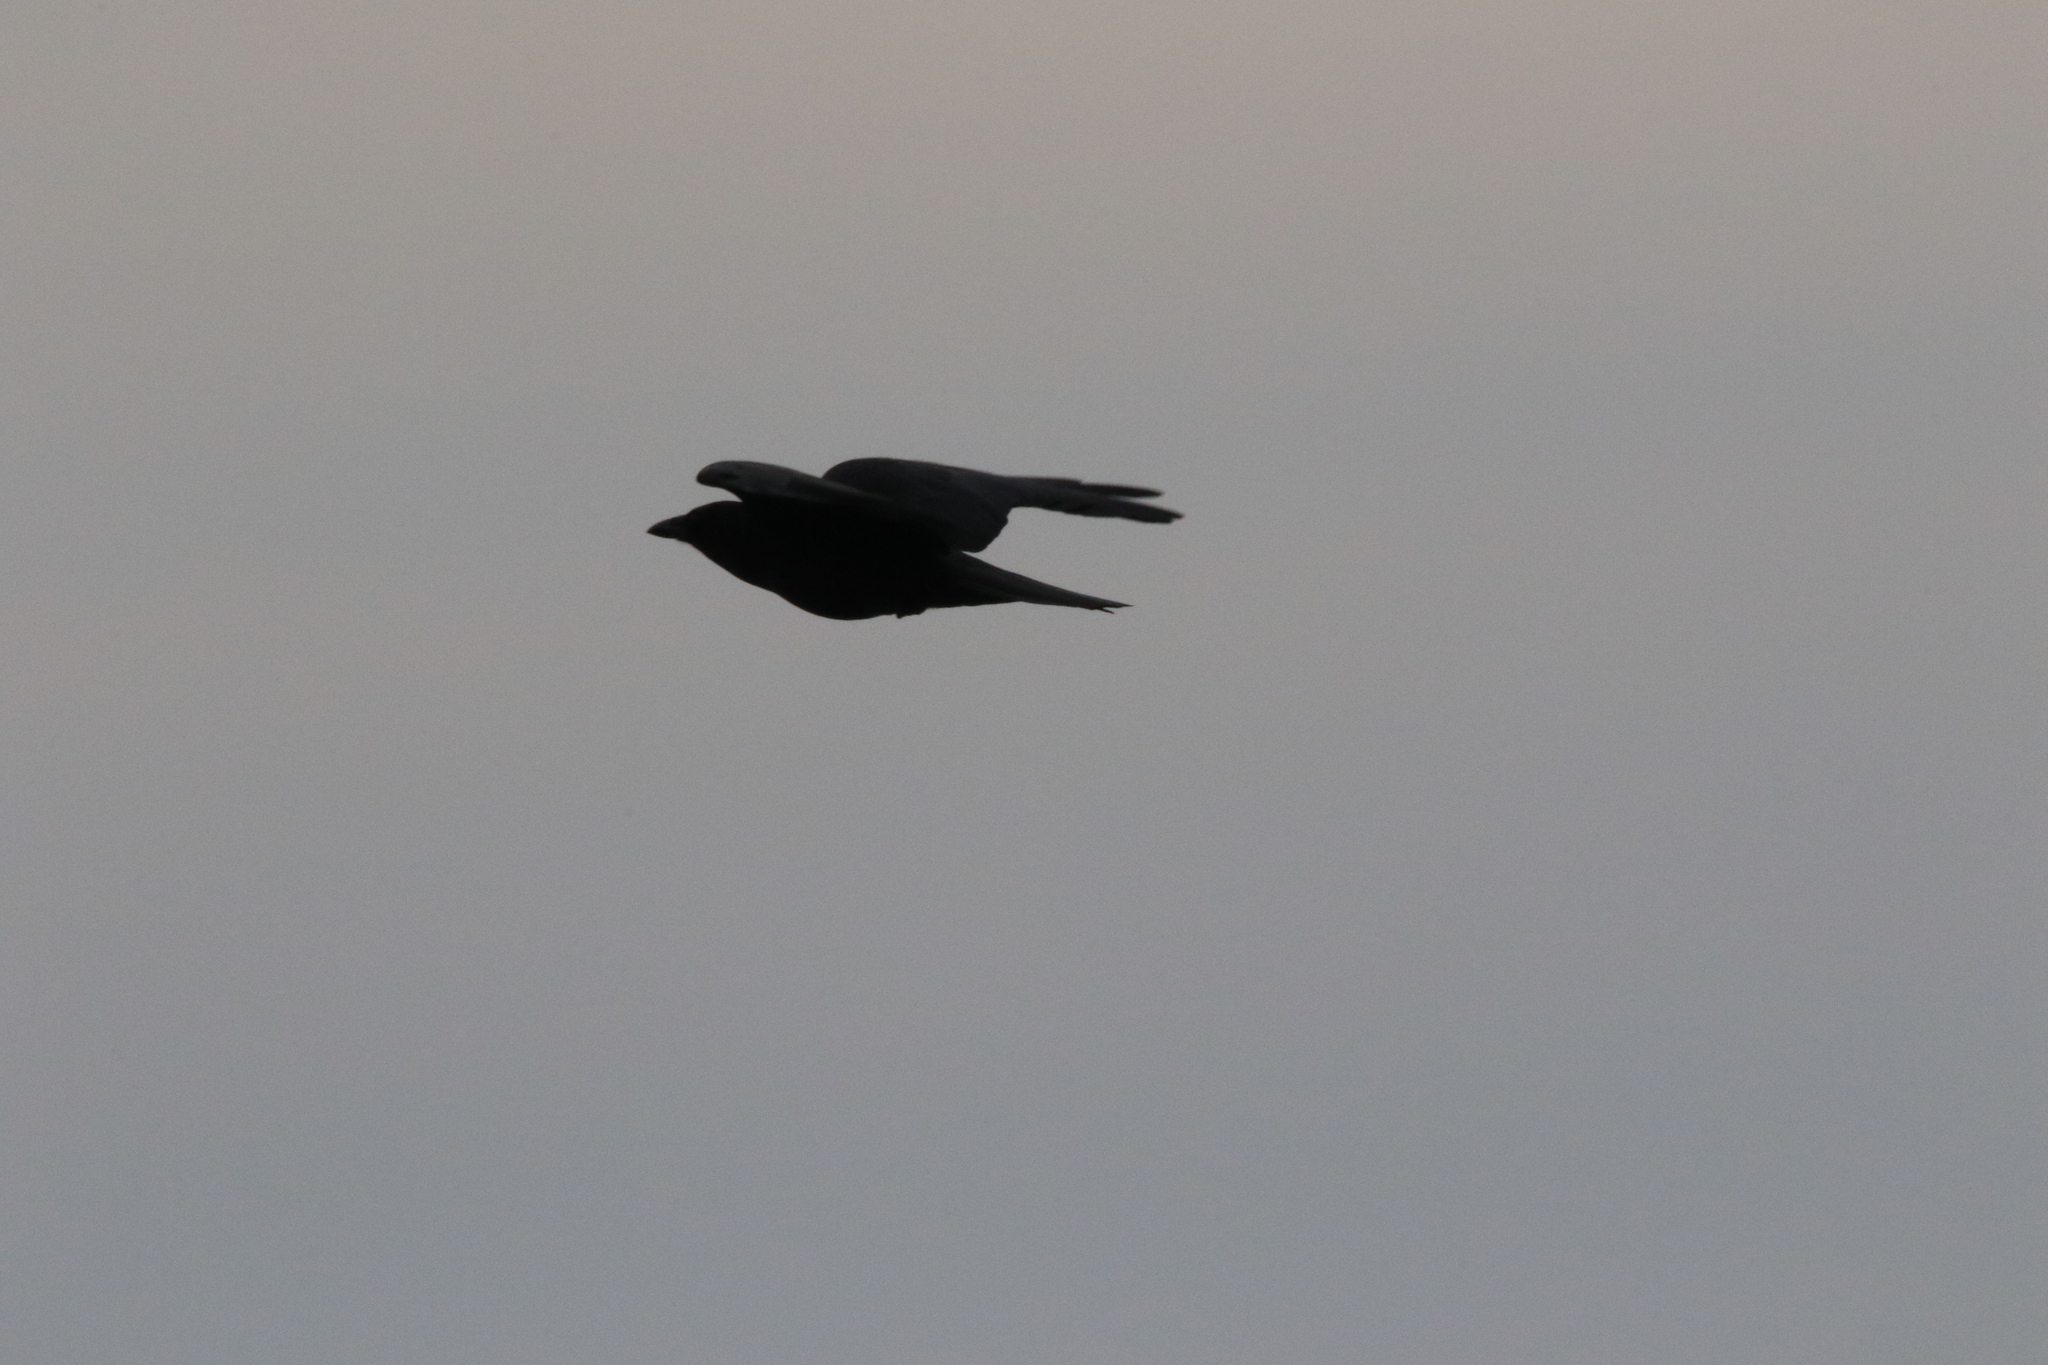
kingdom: Animalia
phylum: Chordata
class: Aves
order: Passeriformes
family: Corvidae
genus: Corvus
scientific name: Corvus brachyrhynchos
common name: American crow
